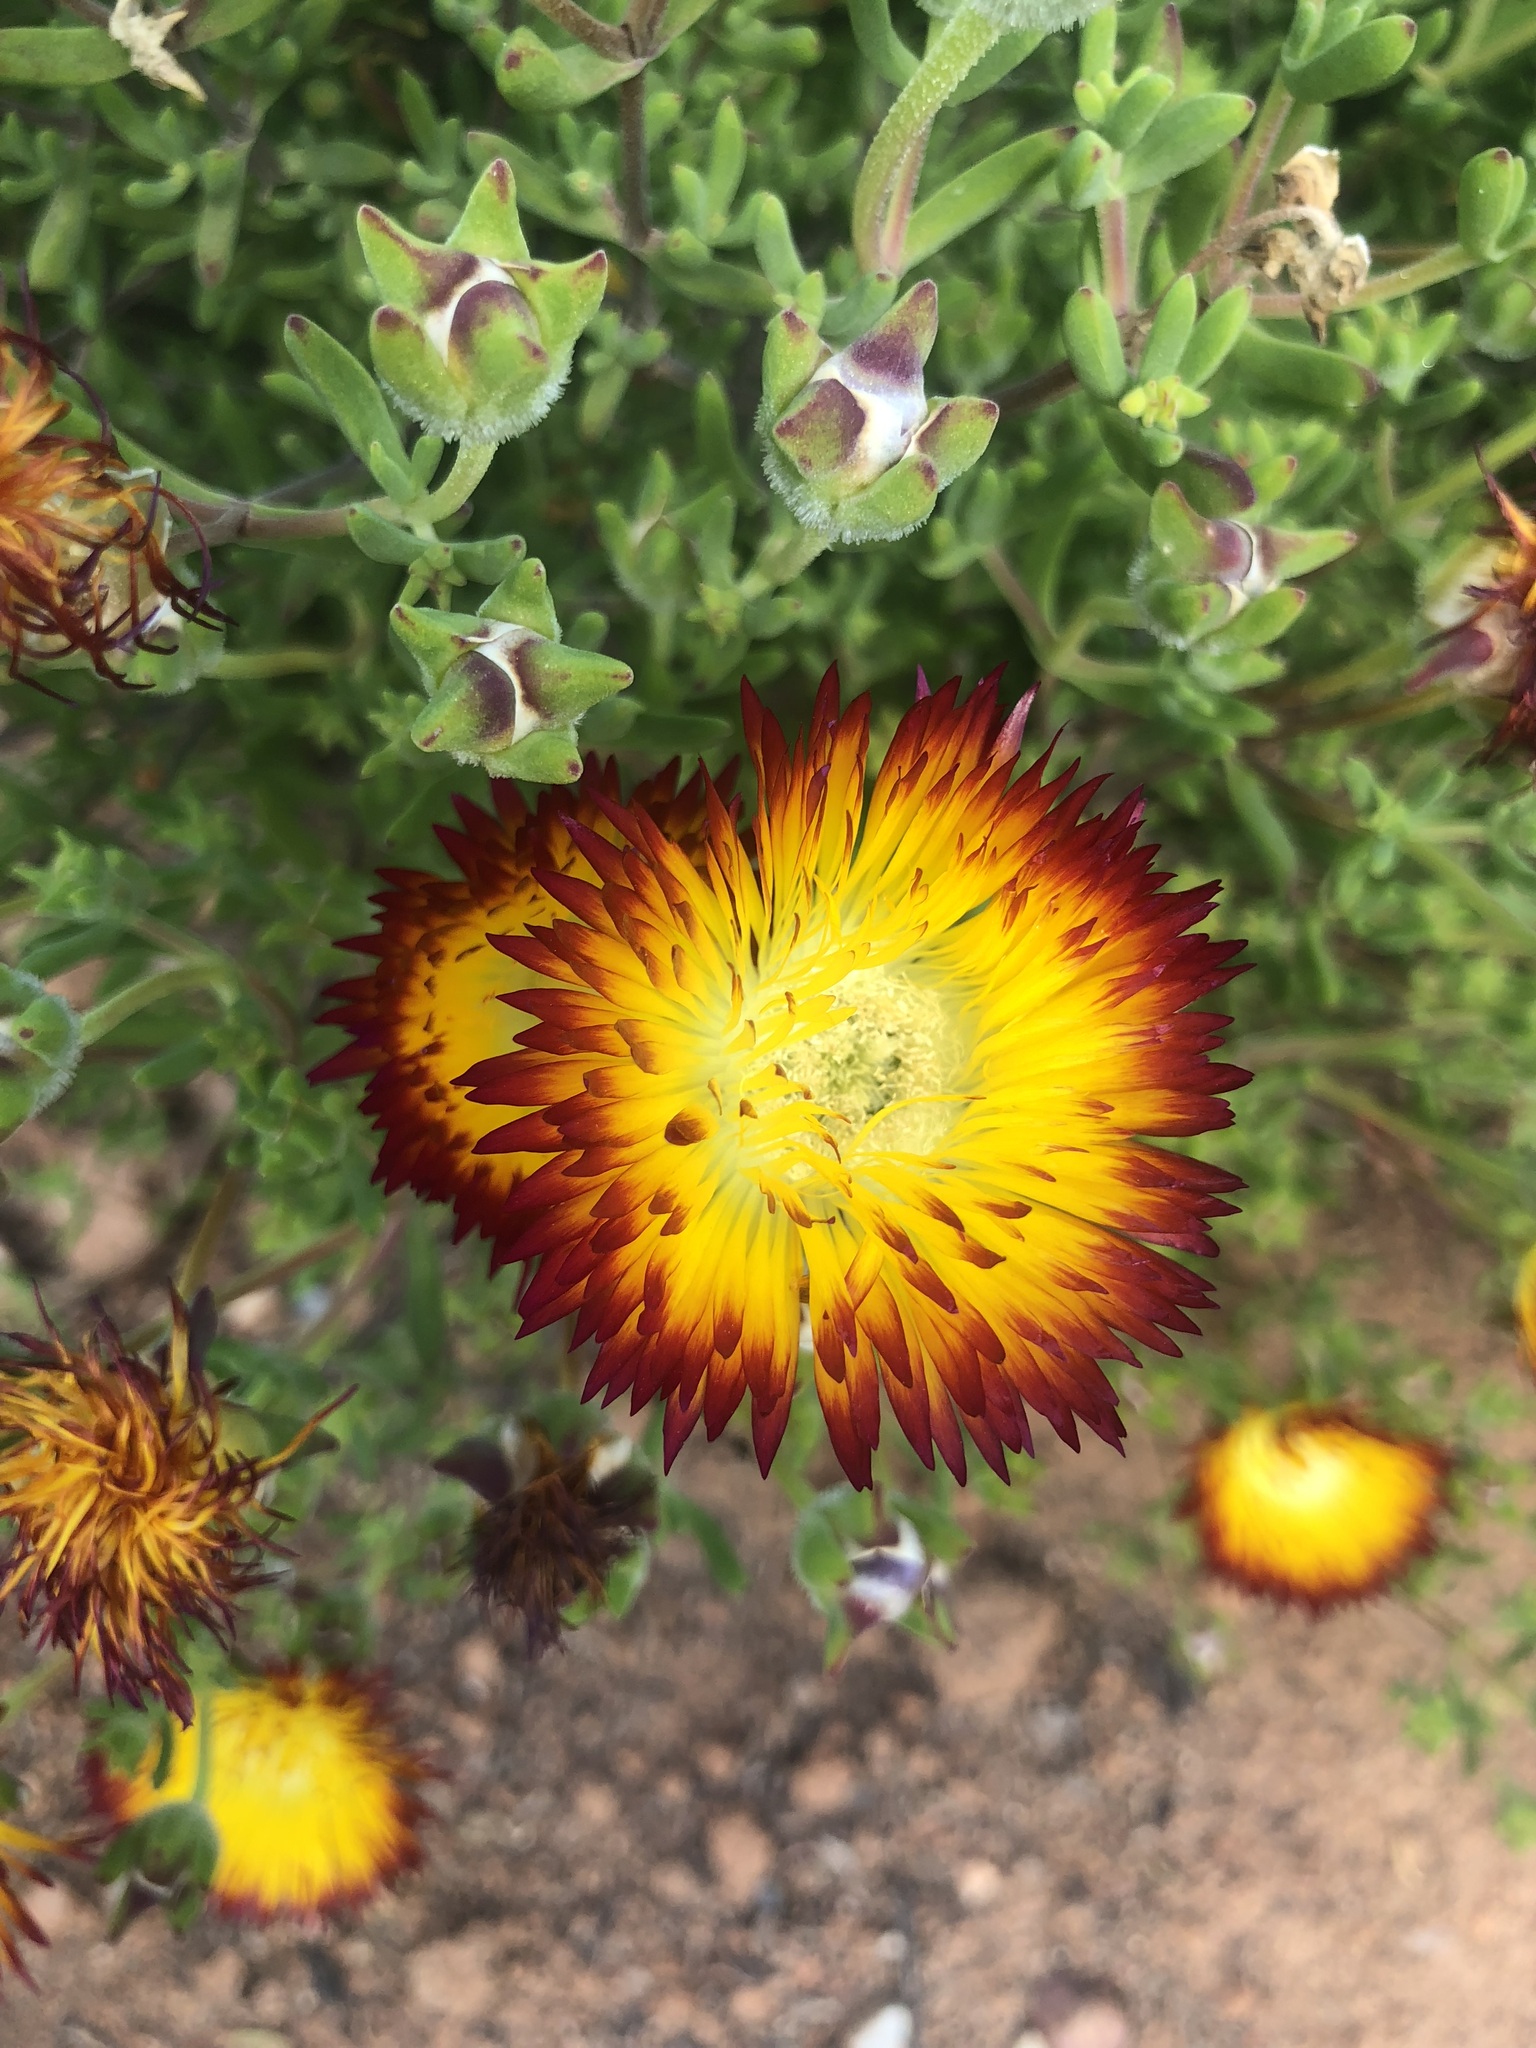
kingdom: Plantae
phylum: Tracheophyta
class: Magnoliopsida
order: Caryophyllales
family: Aizoaceae
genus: Drosanthemum
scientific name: Drosanthemum speciosum
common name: Royal dewflower
